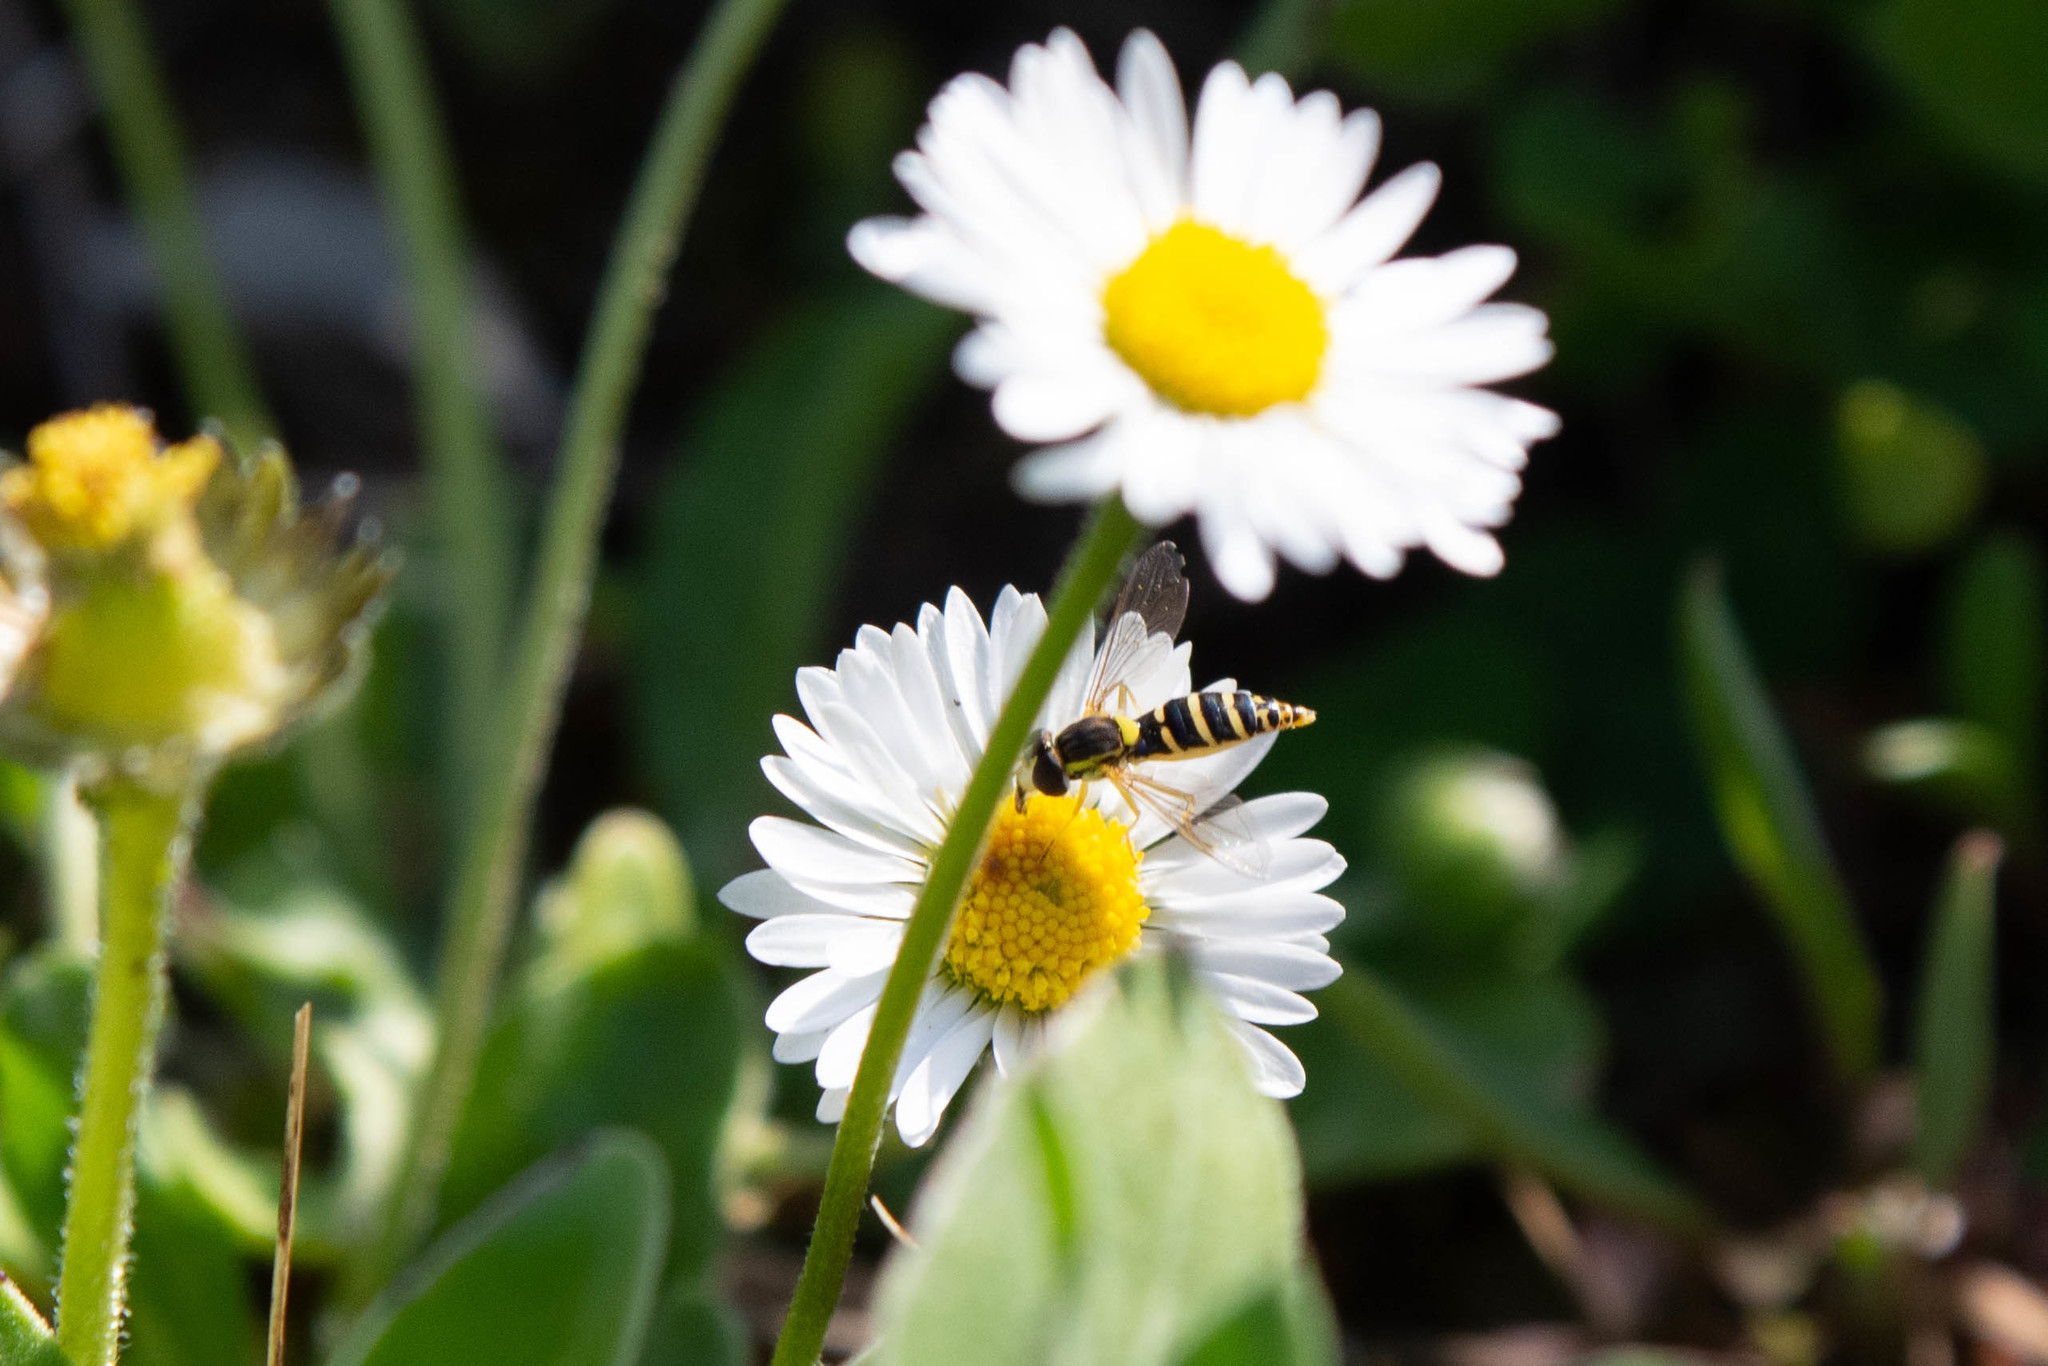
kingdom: Animalia
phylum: Arthropoda
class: Insecta
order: Diptera
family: Syrphidae
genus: Sphaerophoria
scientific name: Sphaerophoria
